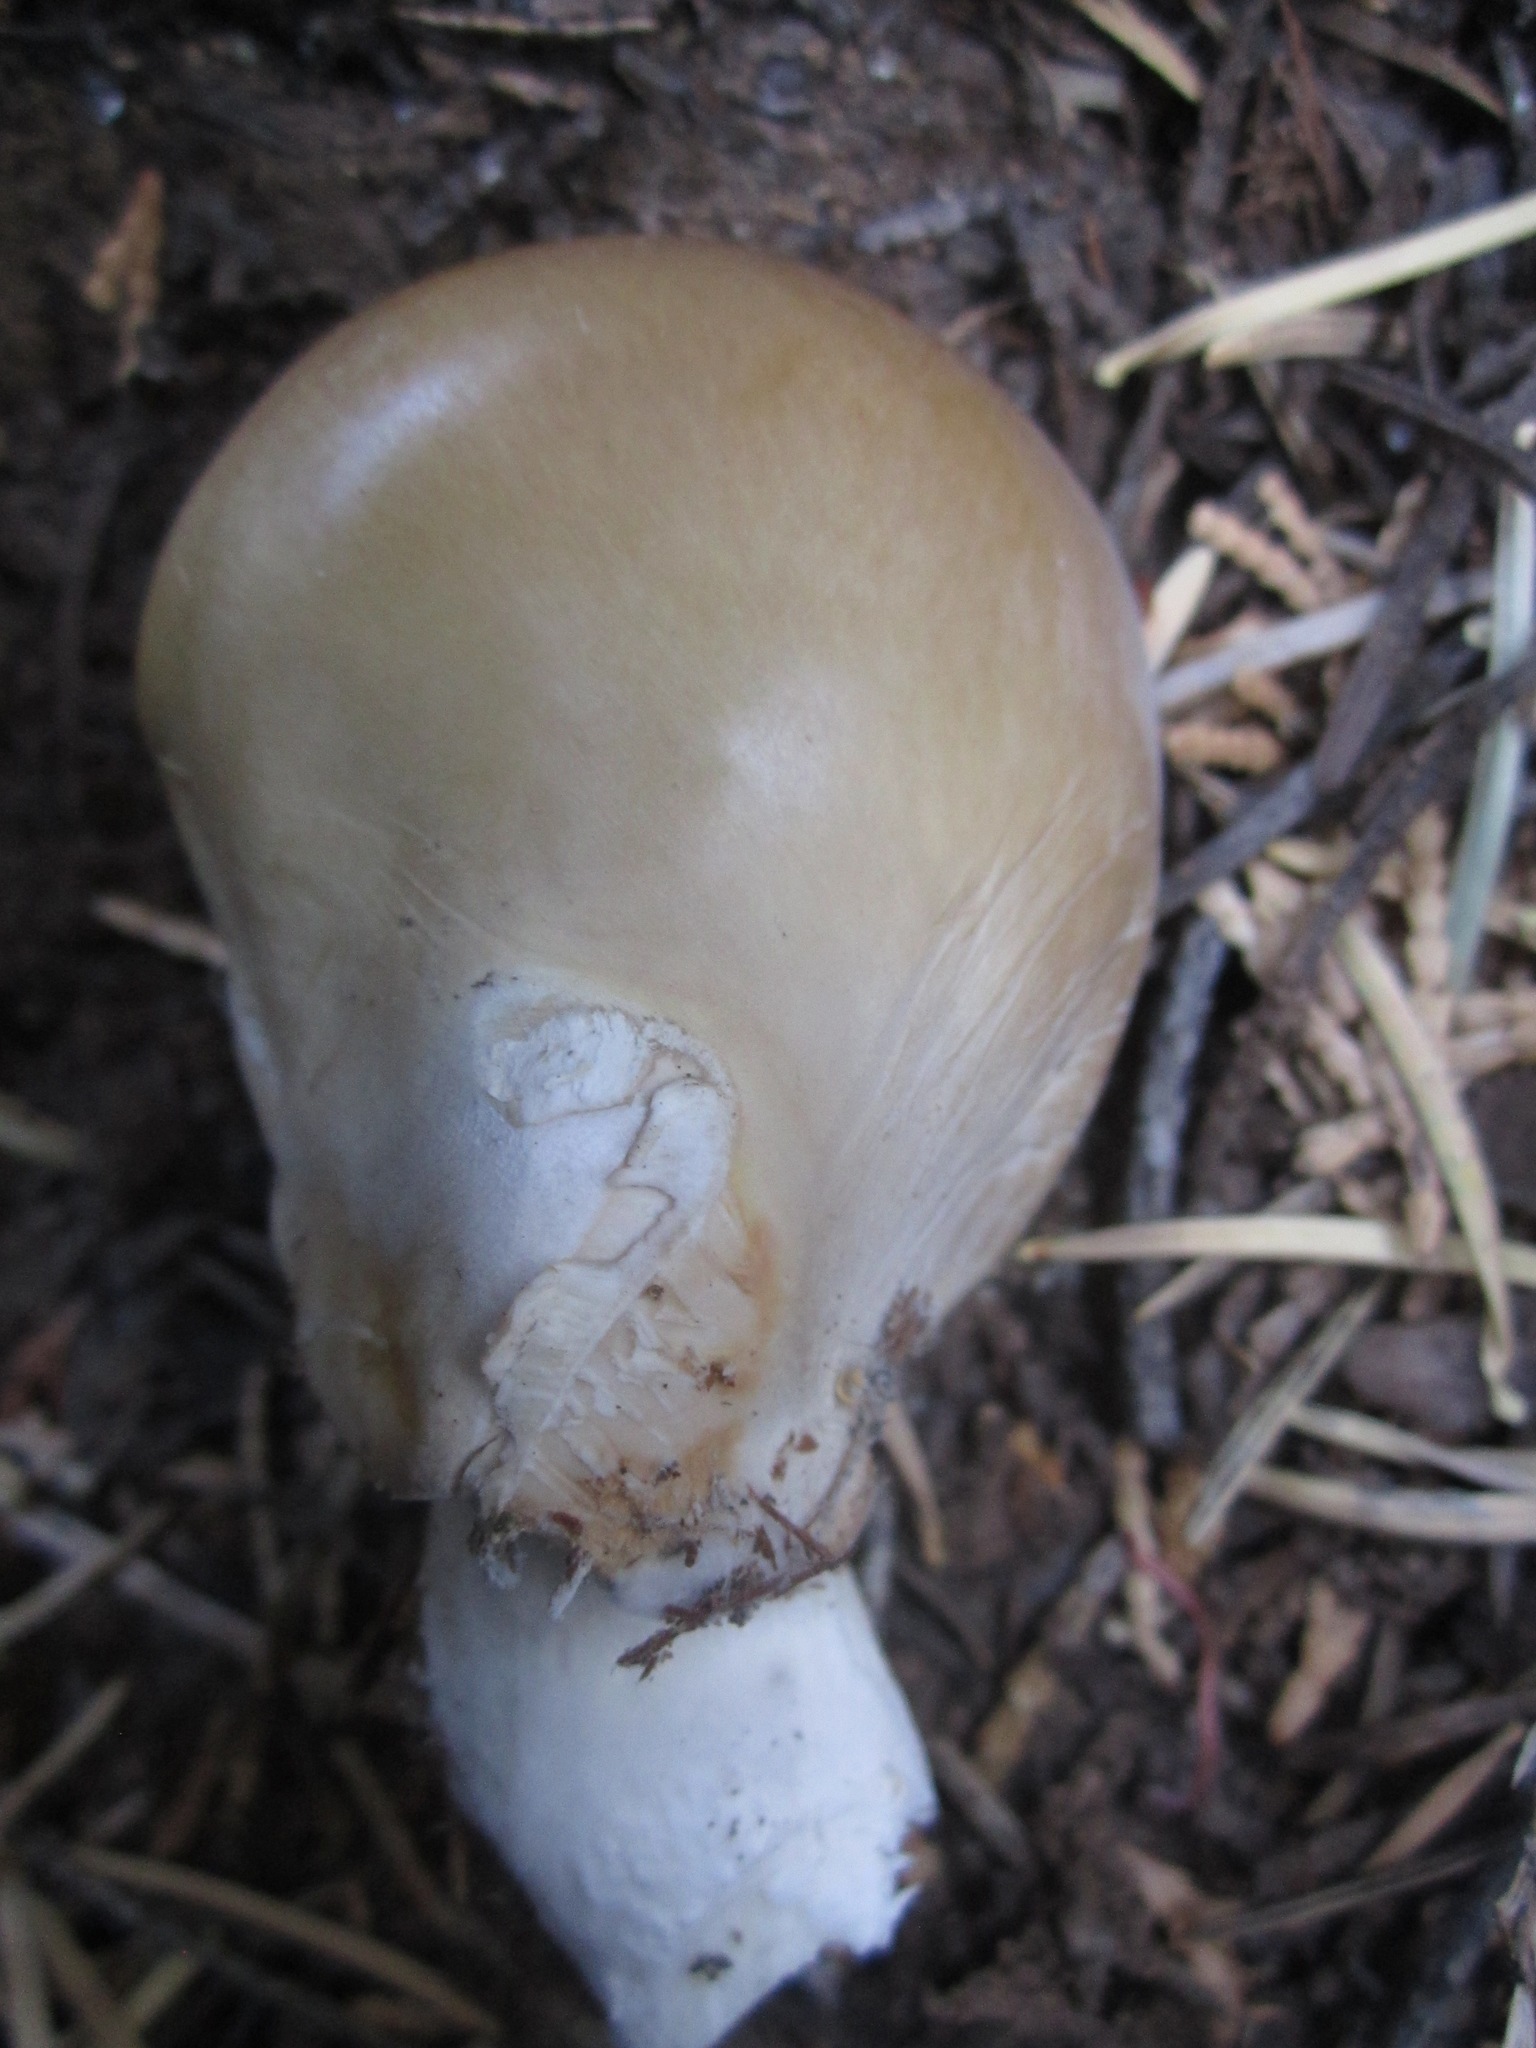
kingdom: Fungi
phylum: Basidiomycota
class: Agaricomycetes
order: Agaricales
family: Pleurotaceae
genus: Pleurotus
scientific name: Pleurotus ostreatus
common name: Oyster mushroom
